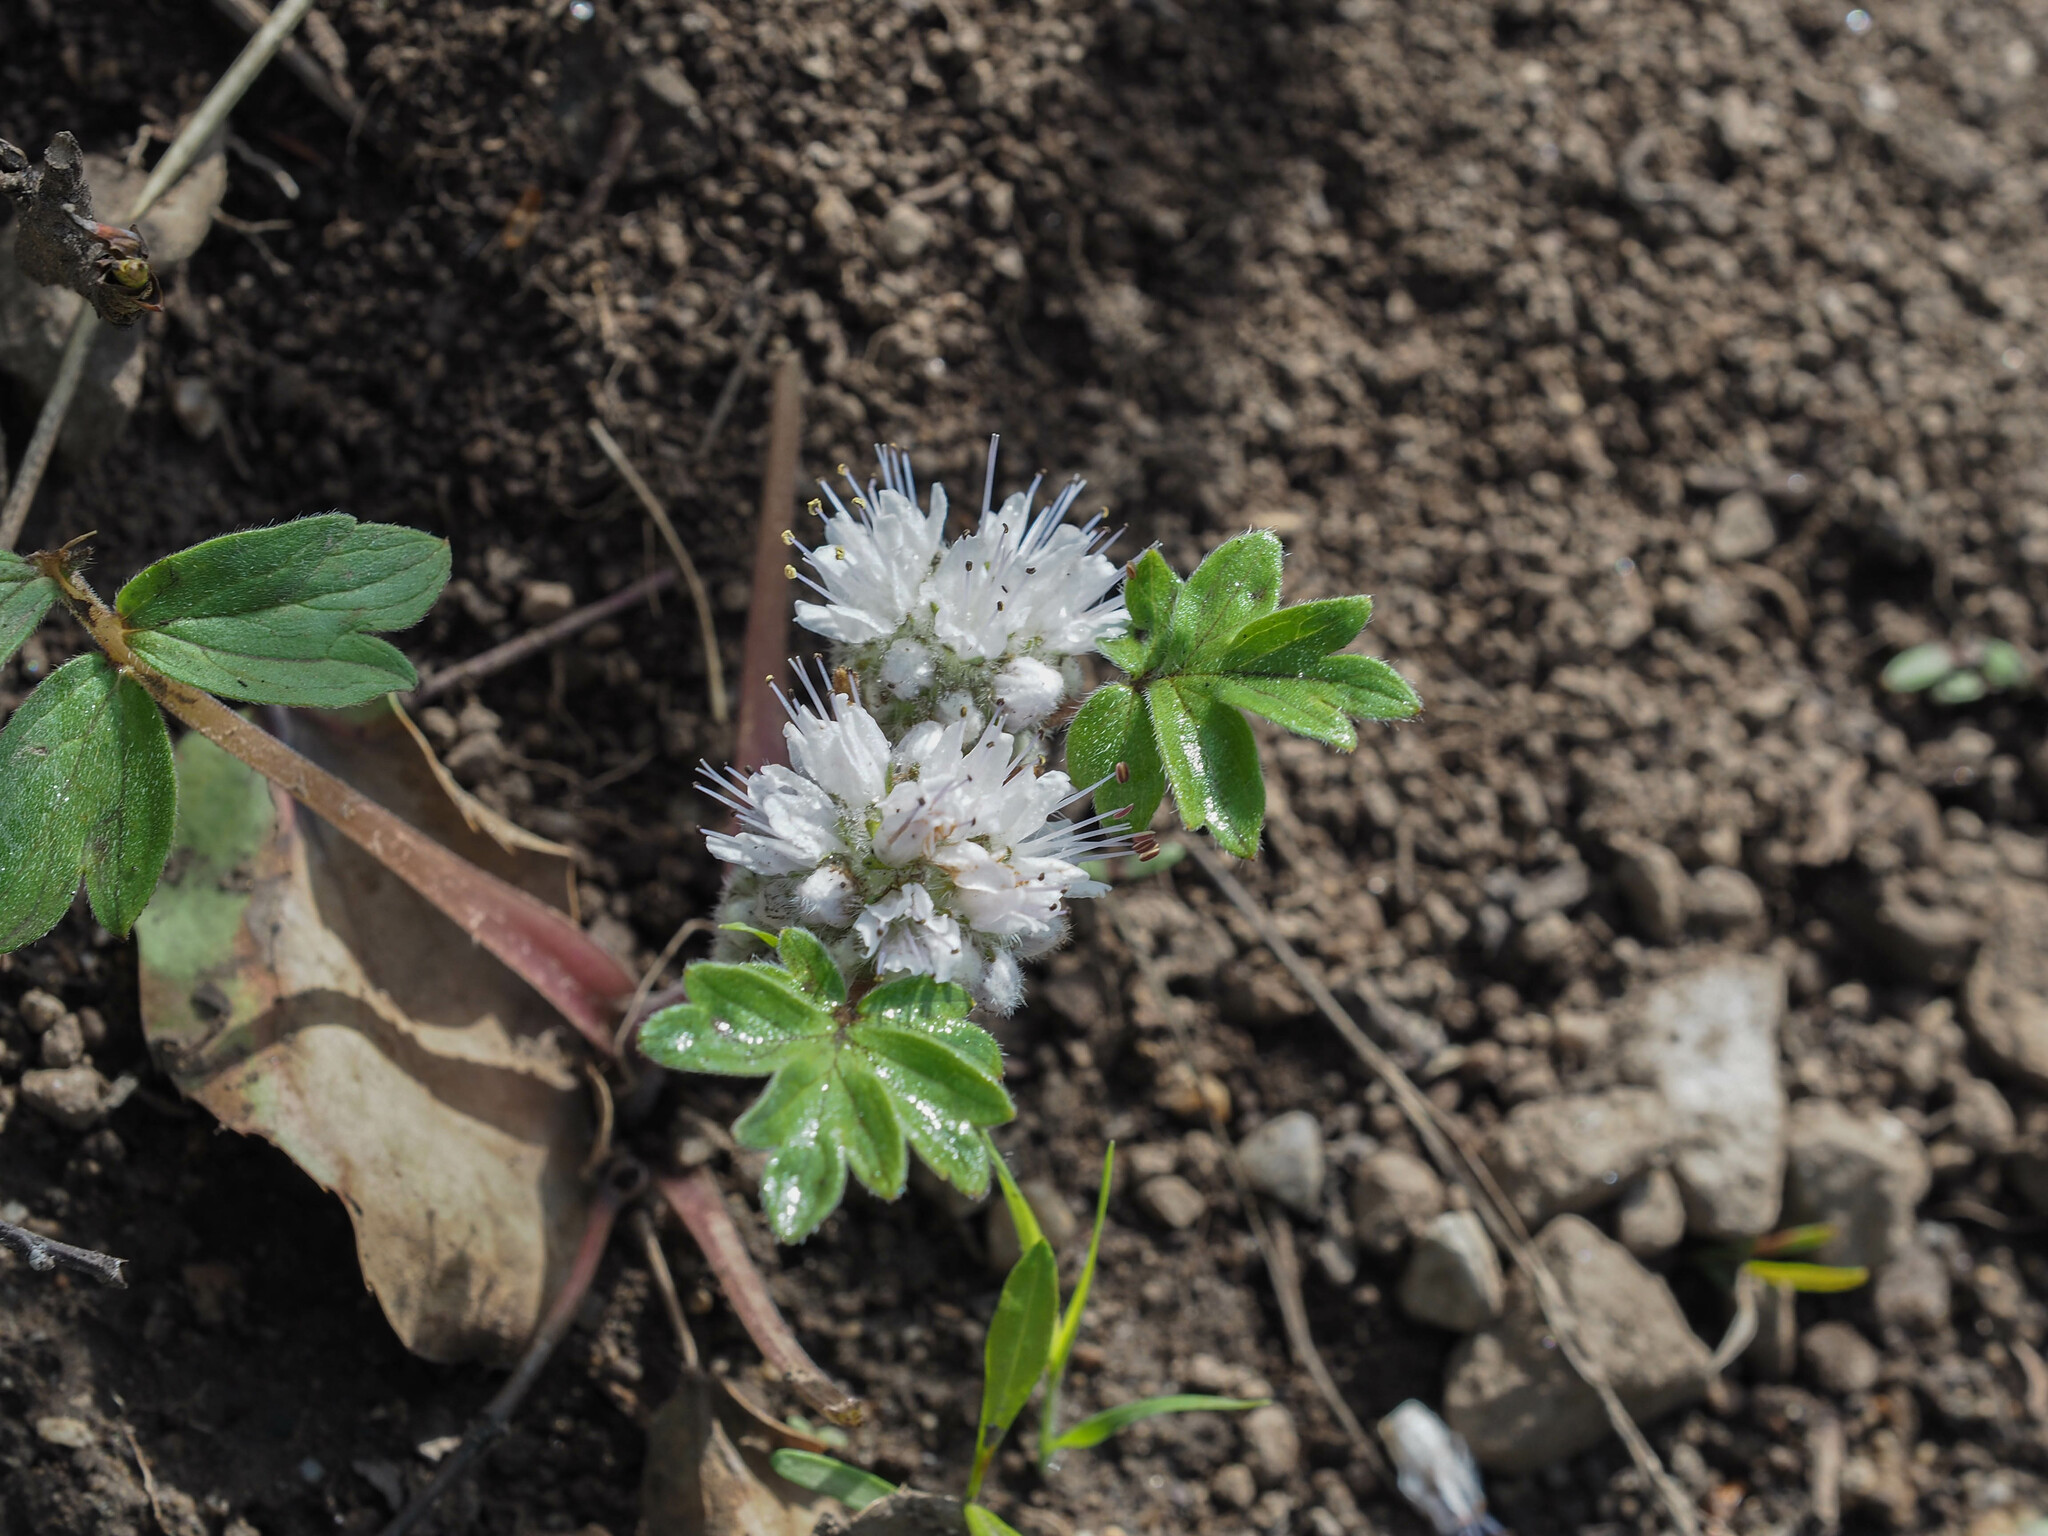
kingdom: Plantae
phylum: Tracheophyta
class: Magnoliopsida
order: Boraginales
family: Hydrophyllaceae
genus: Hydrophyllum
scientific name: Hydrophyllum capitatum
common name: Woollen-breeches
